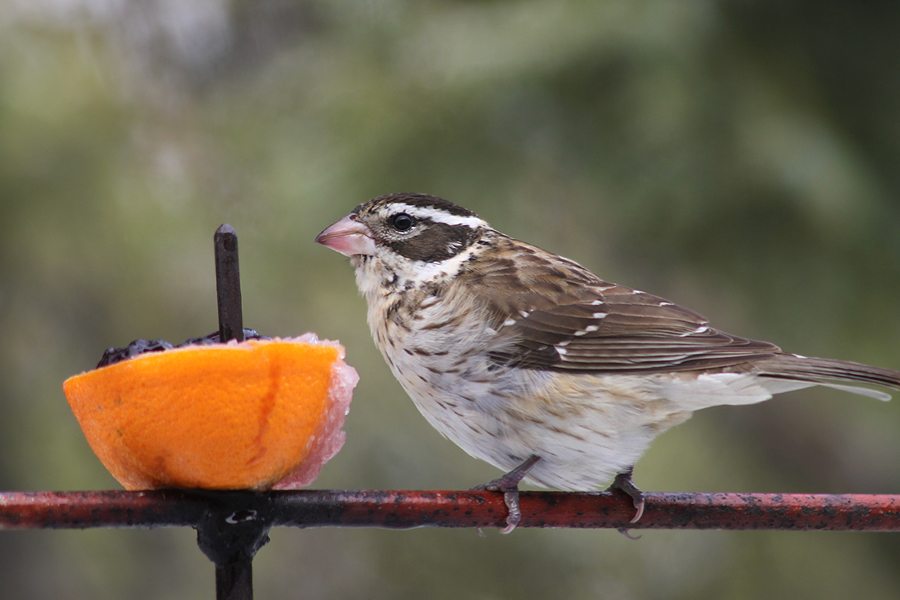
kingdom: Animalia
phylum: Chordata
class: Aves
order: Passeriformes
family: Cardinalidae
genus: Pheucticus
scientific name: Pheucticus ludovicianus
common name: Rose-breasted grosbeak
